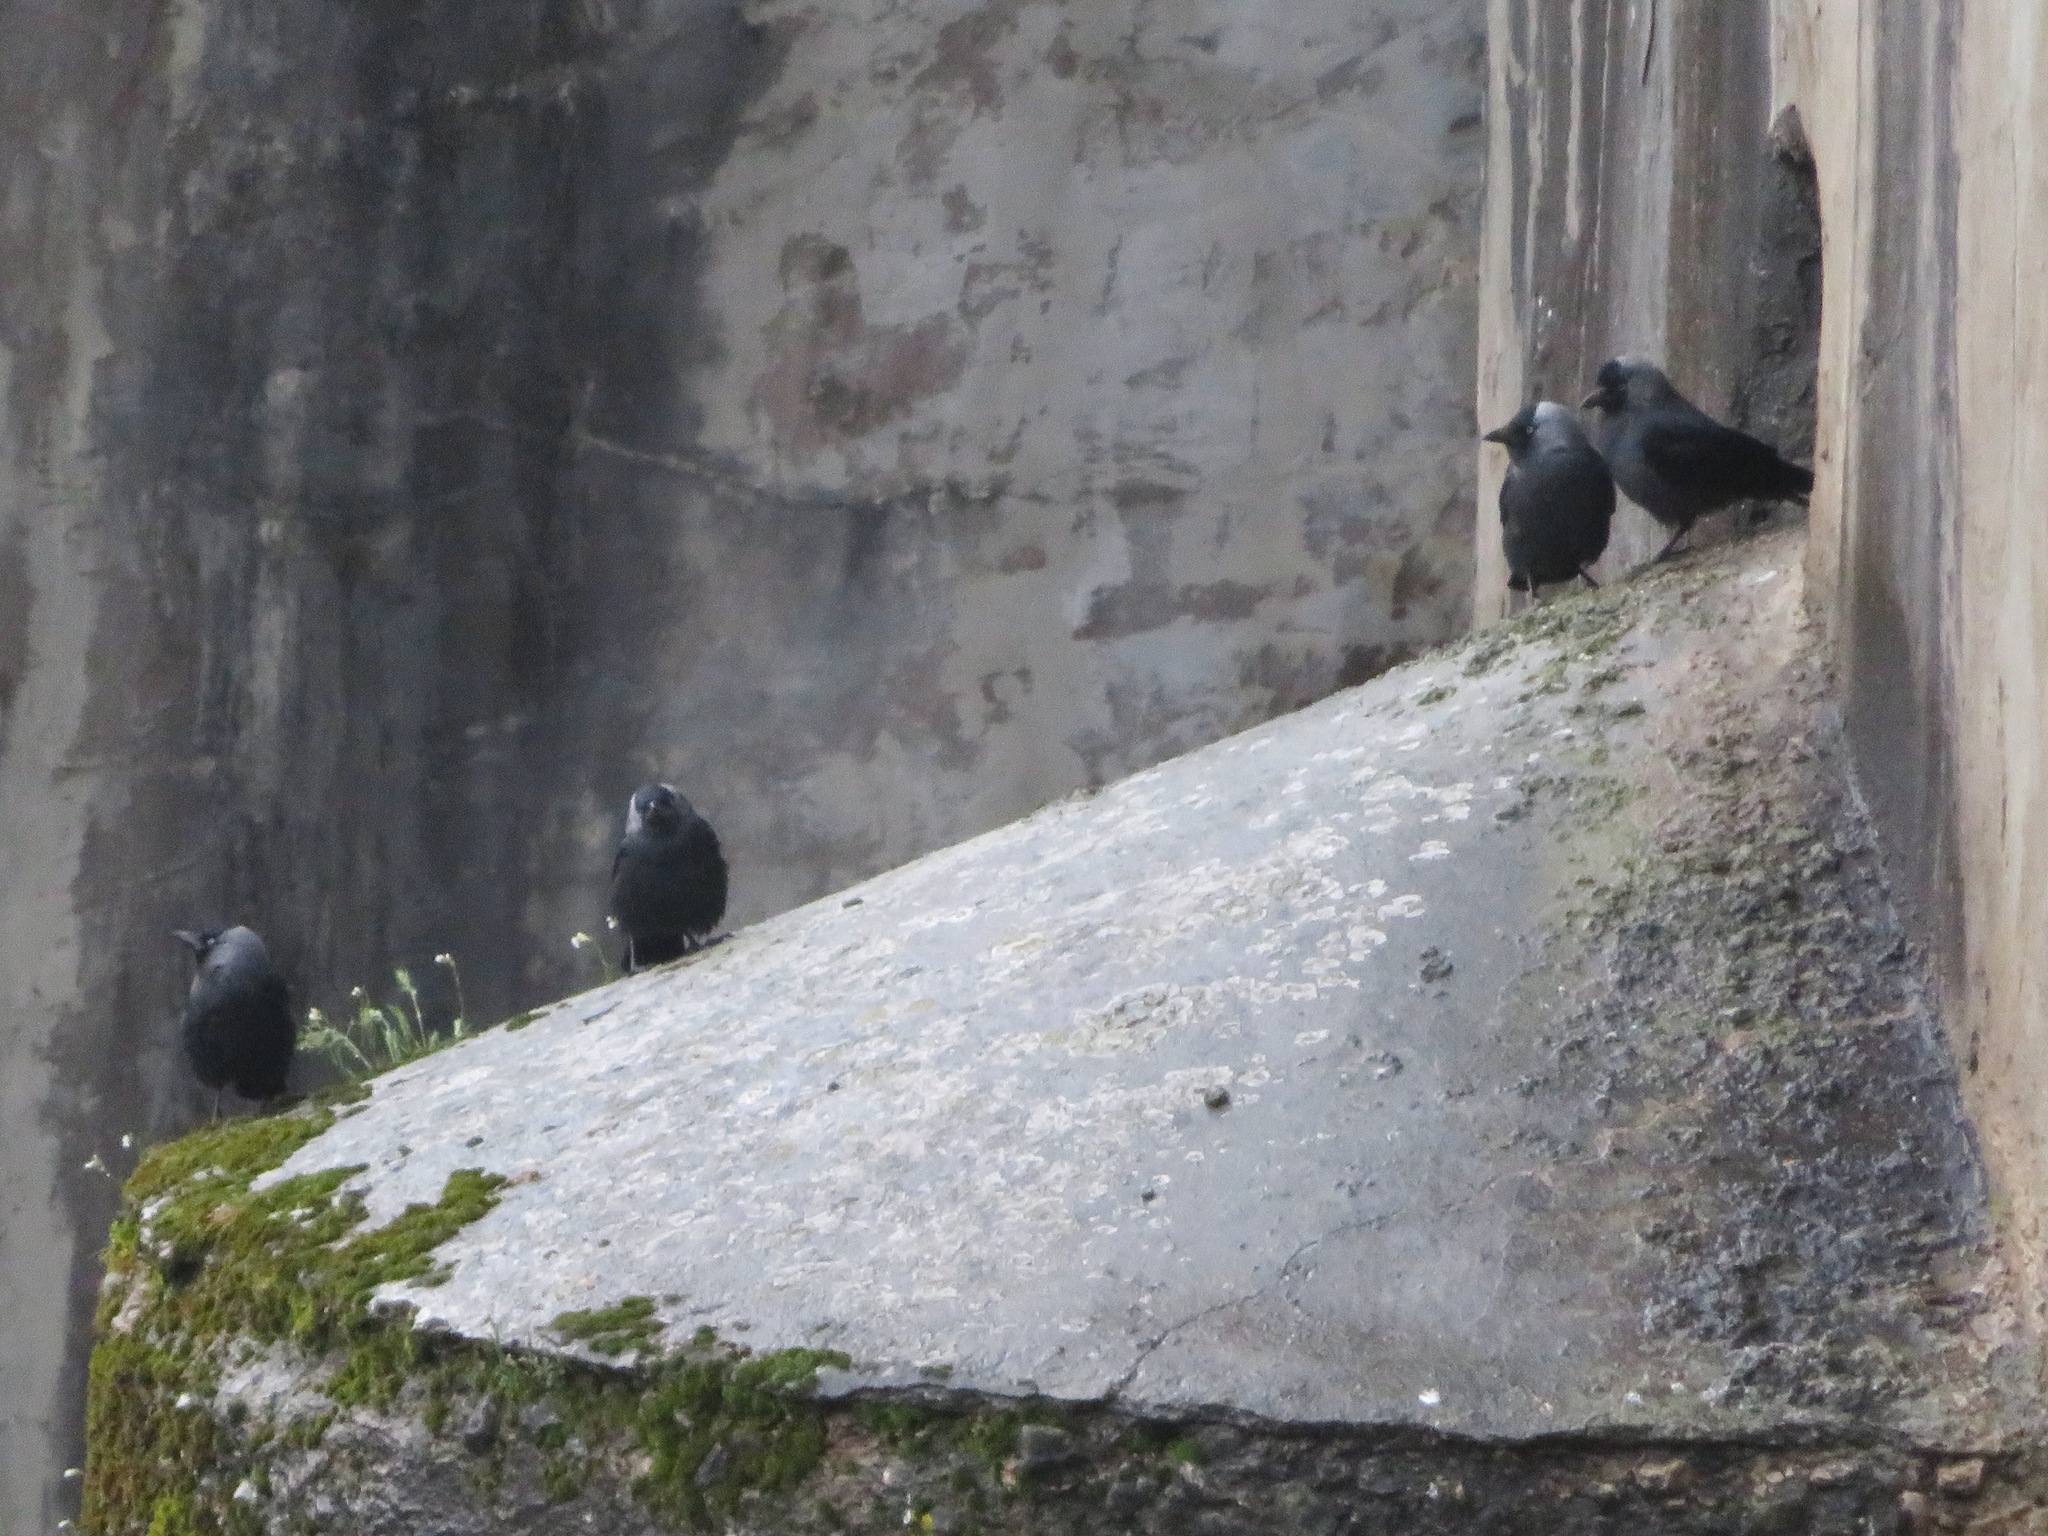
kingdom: Animalia
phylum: Chordata
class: Aves
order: Passeriformes
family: Corvidae
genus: Coloeus
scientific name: Coloeus monedula
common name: Western jackdaw
